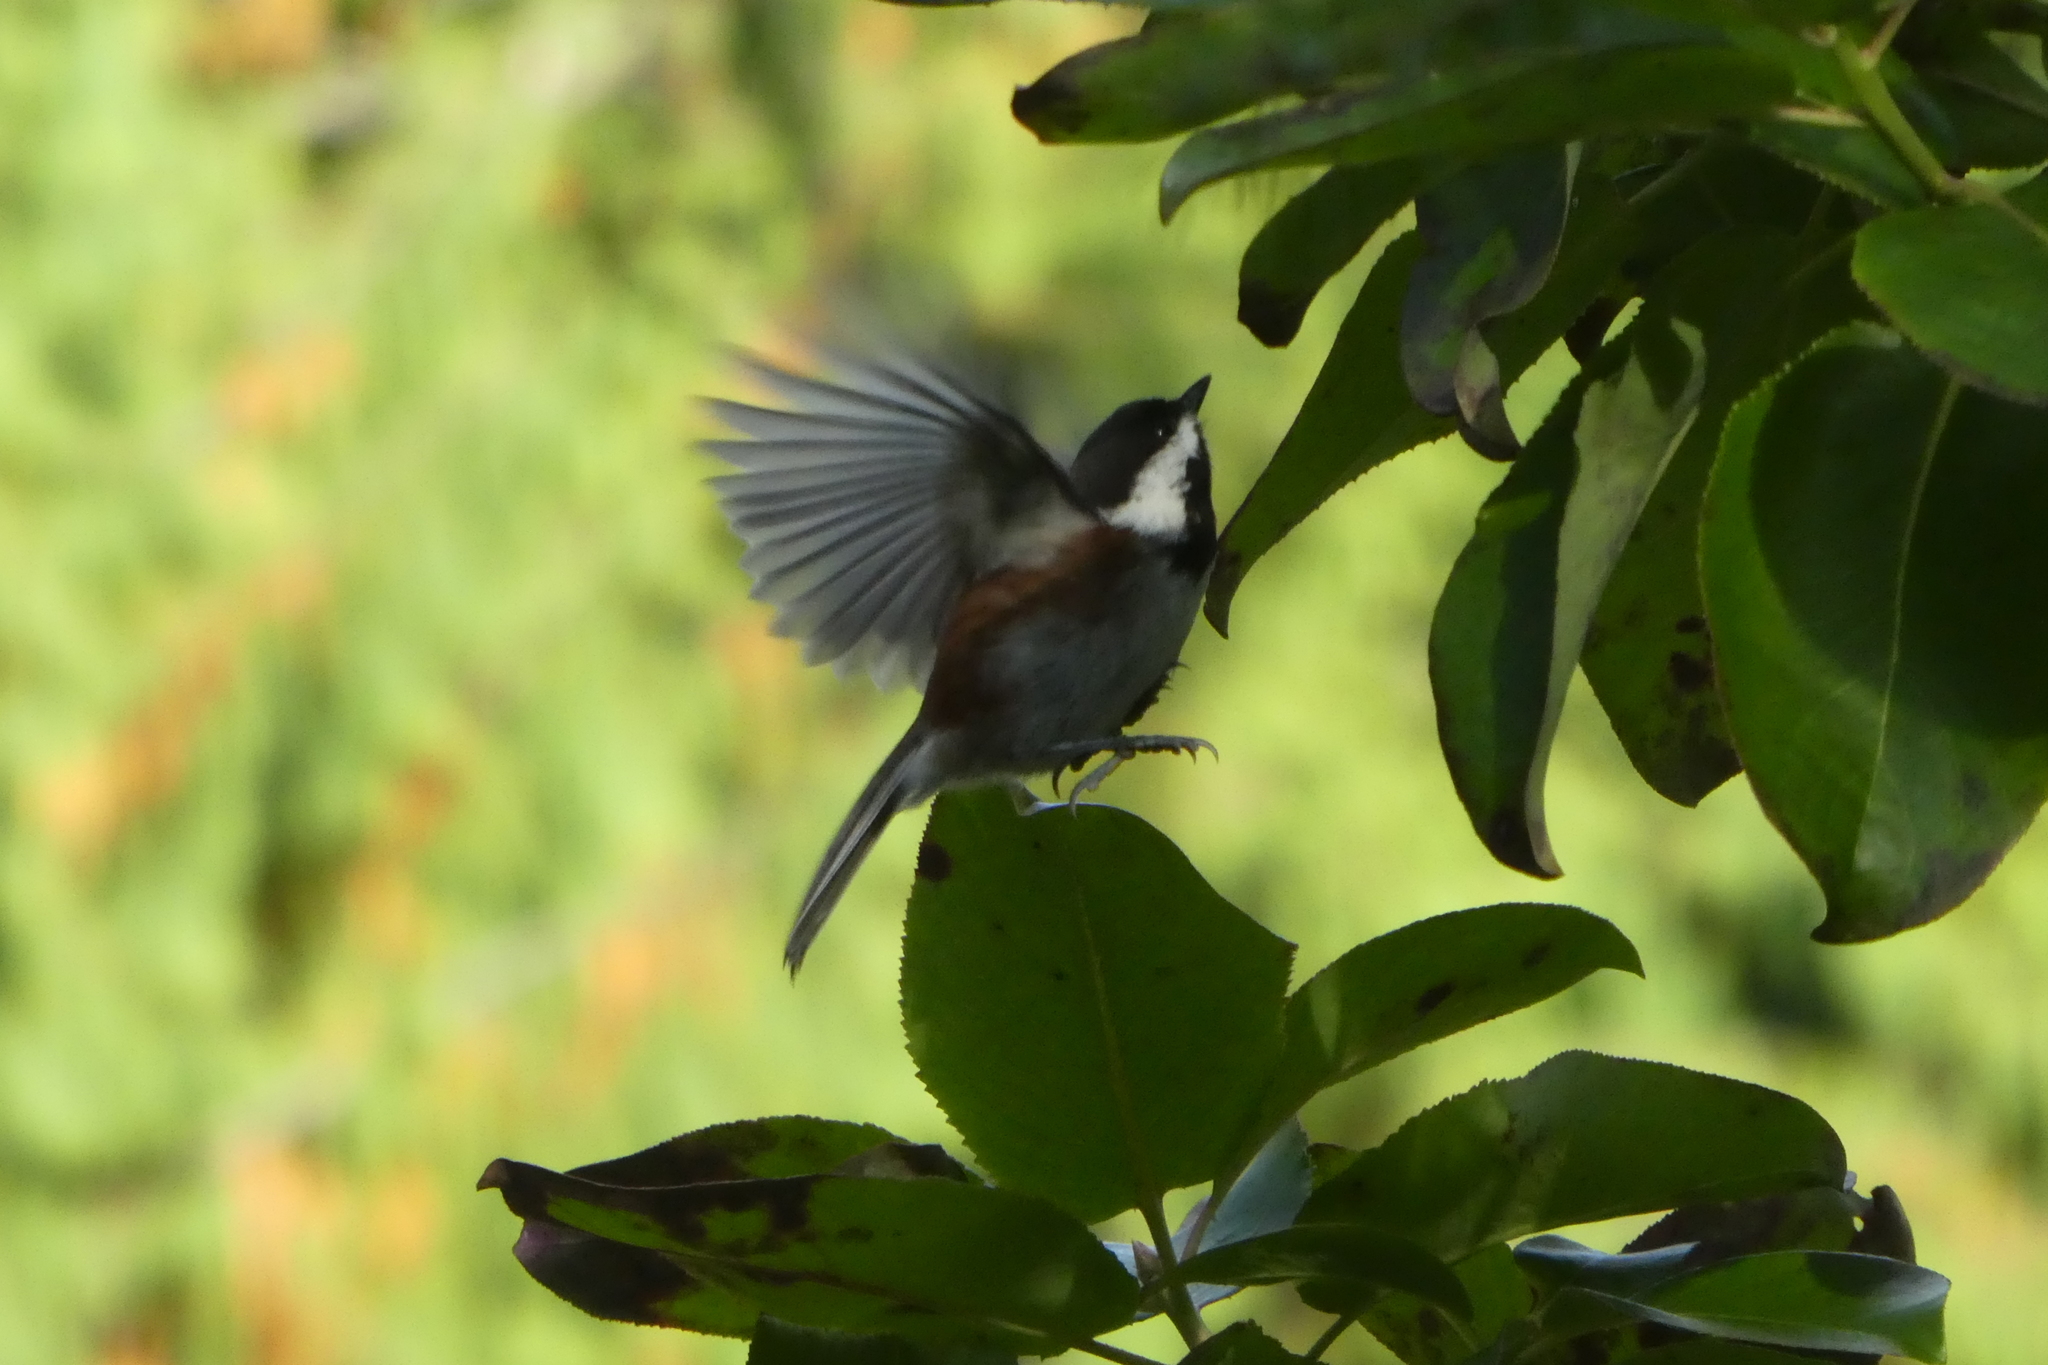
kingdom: Animalia
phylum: Chordata
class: Aves
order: Passeriformes
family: Paridae
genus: Poecile
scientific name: Poecile rufescens
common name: Chestnut-backed chickadee
